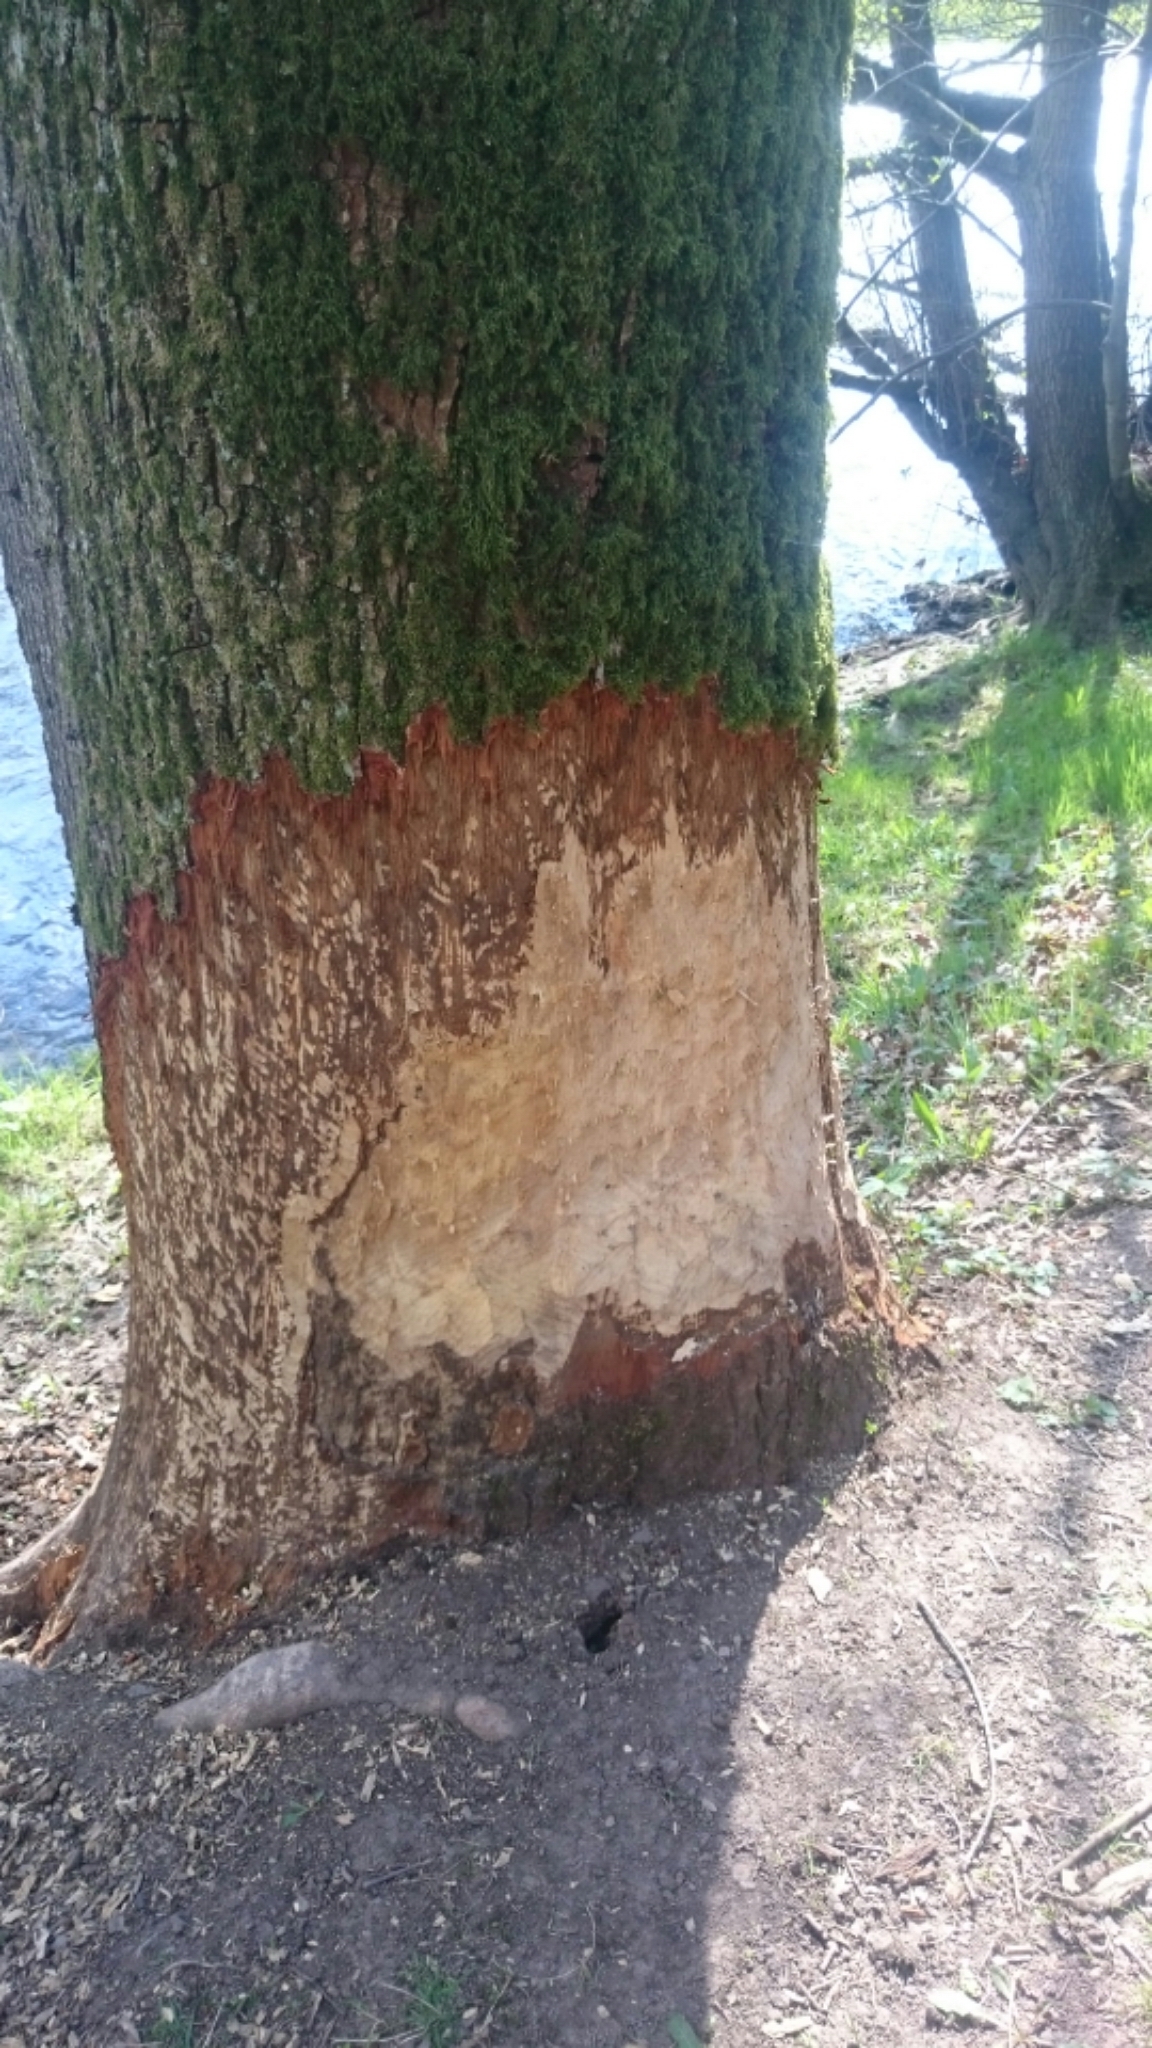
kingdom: Animalia
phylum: Chordata
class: Mammalia
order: Rodentia
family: Castoridae
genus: Castor
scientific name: Castor fiber
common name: Eurasian beaver
